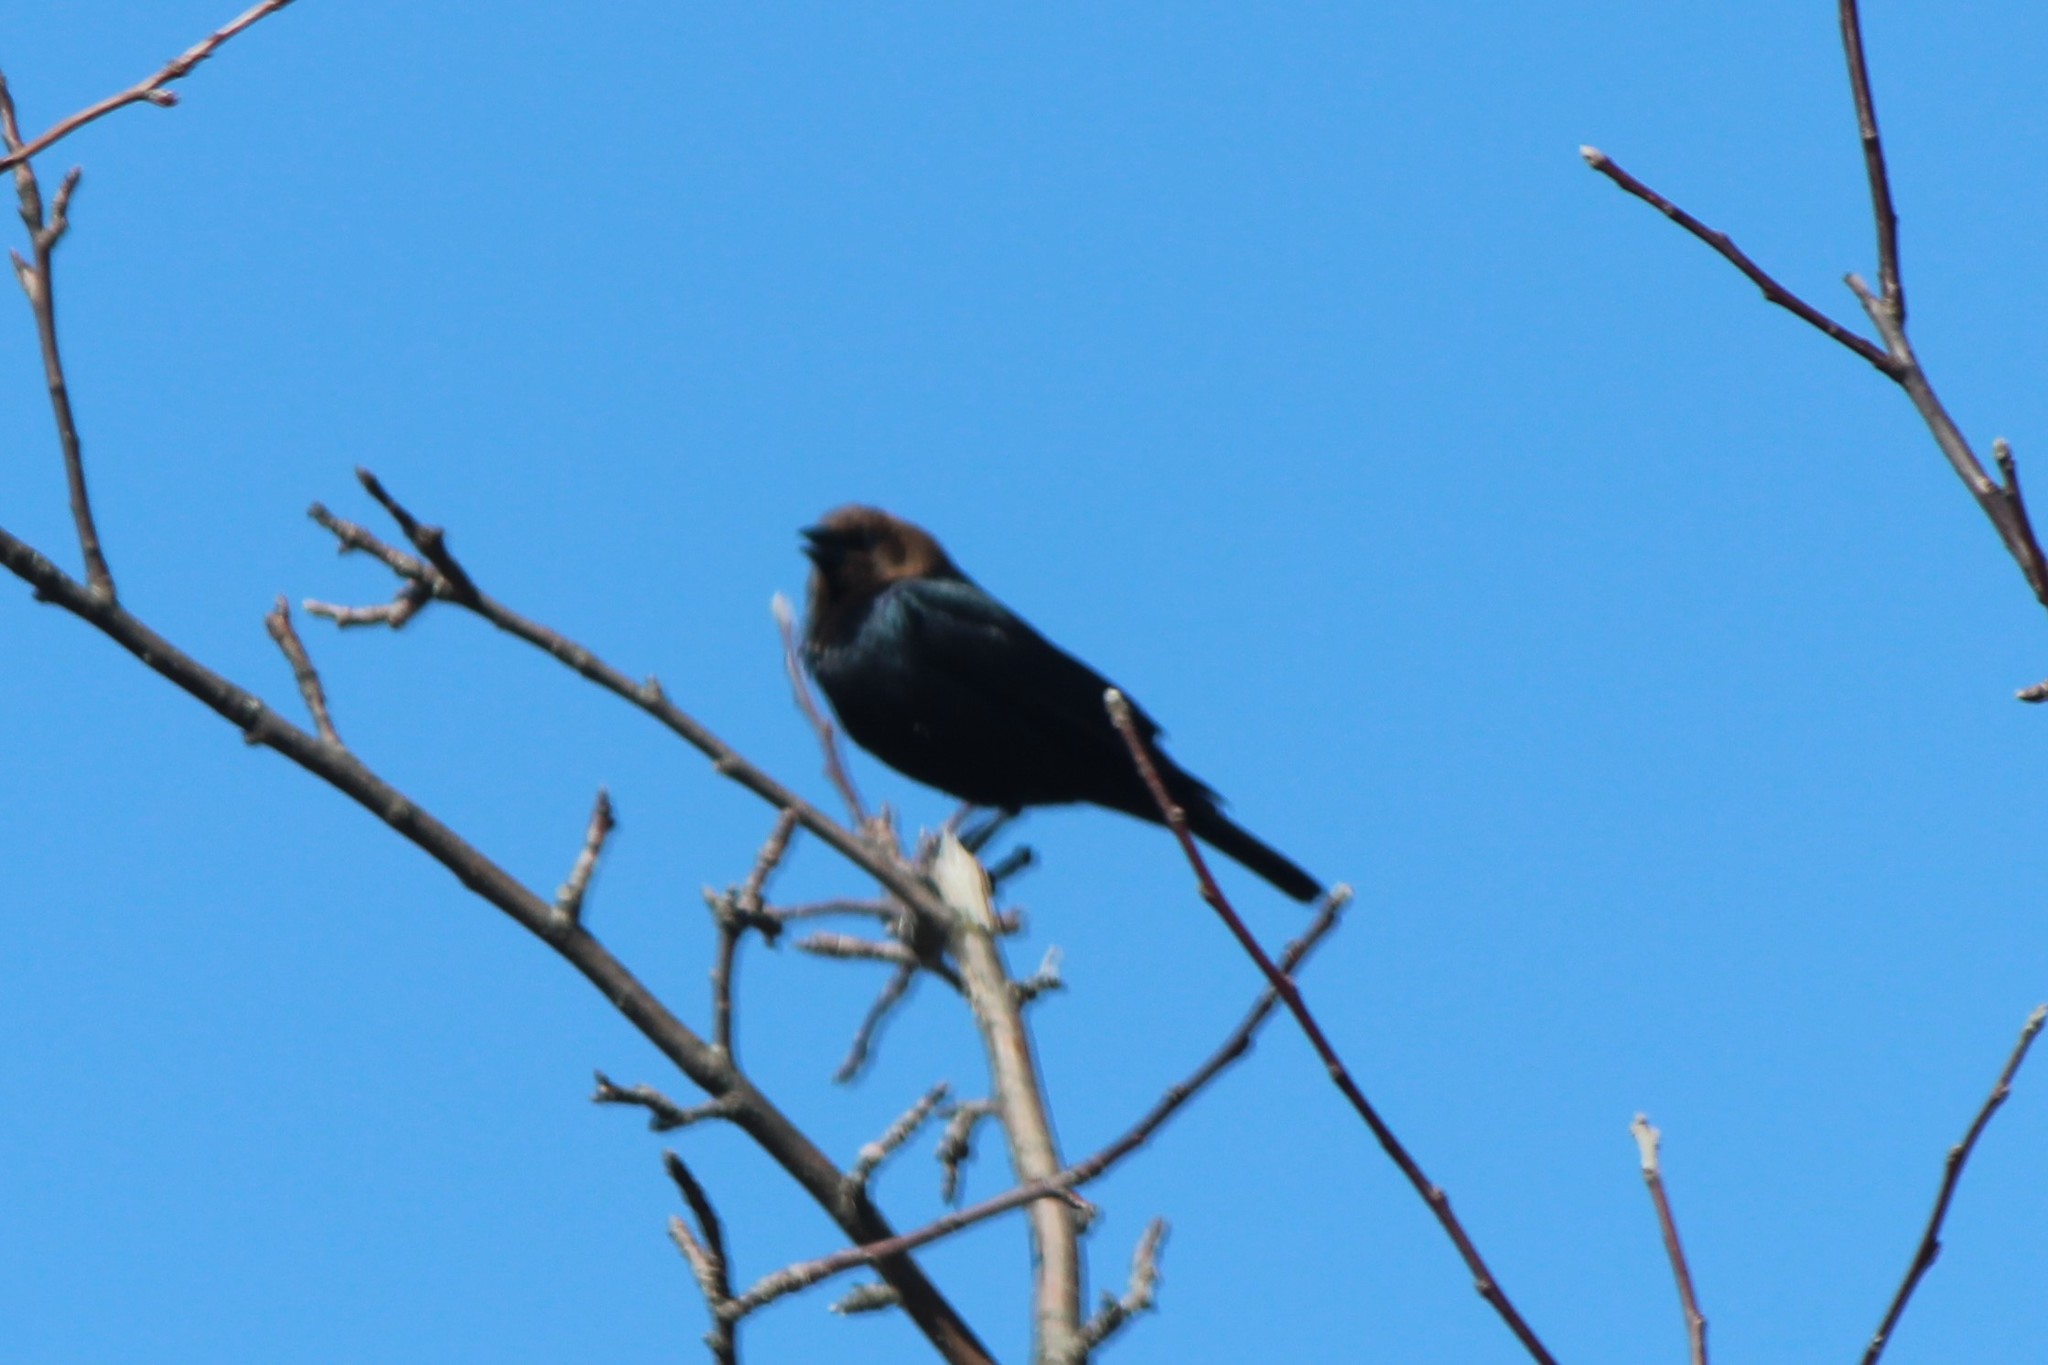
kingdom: Animalia
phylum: Chordata
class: Aves
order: Passeriformes
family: Icteridae
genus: Molothrus
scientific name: Molothrus ater
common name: Brown-headed cowbird
